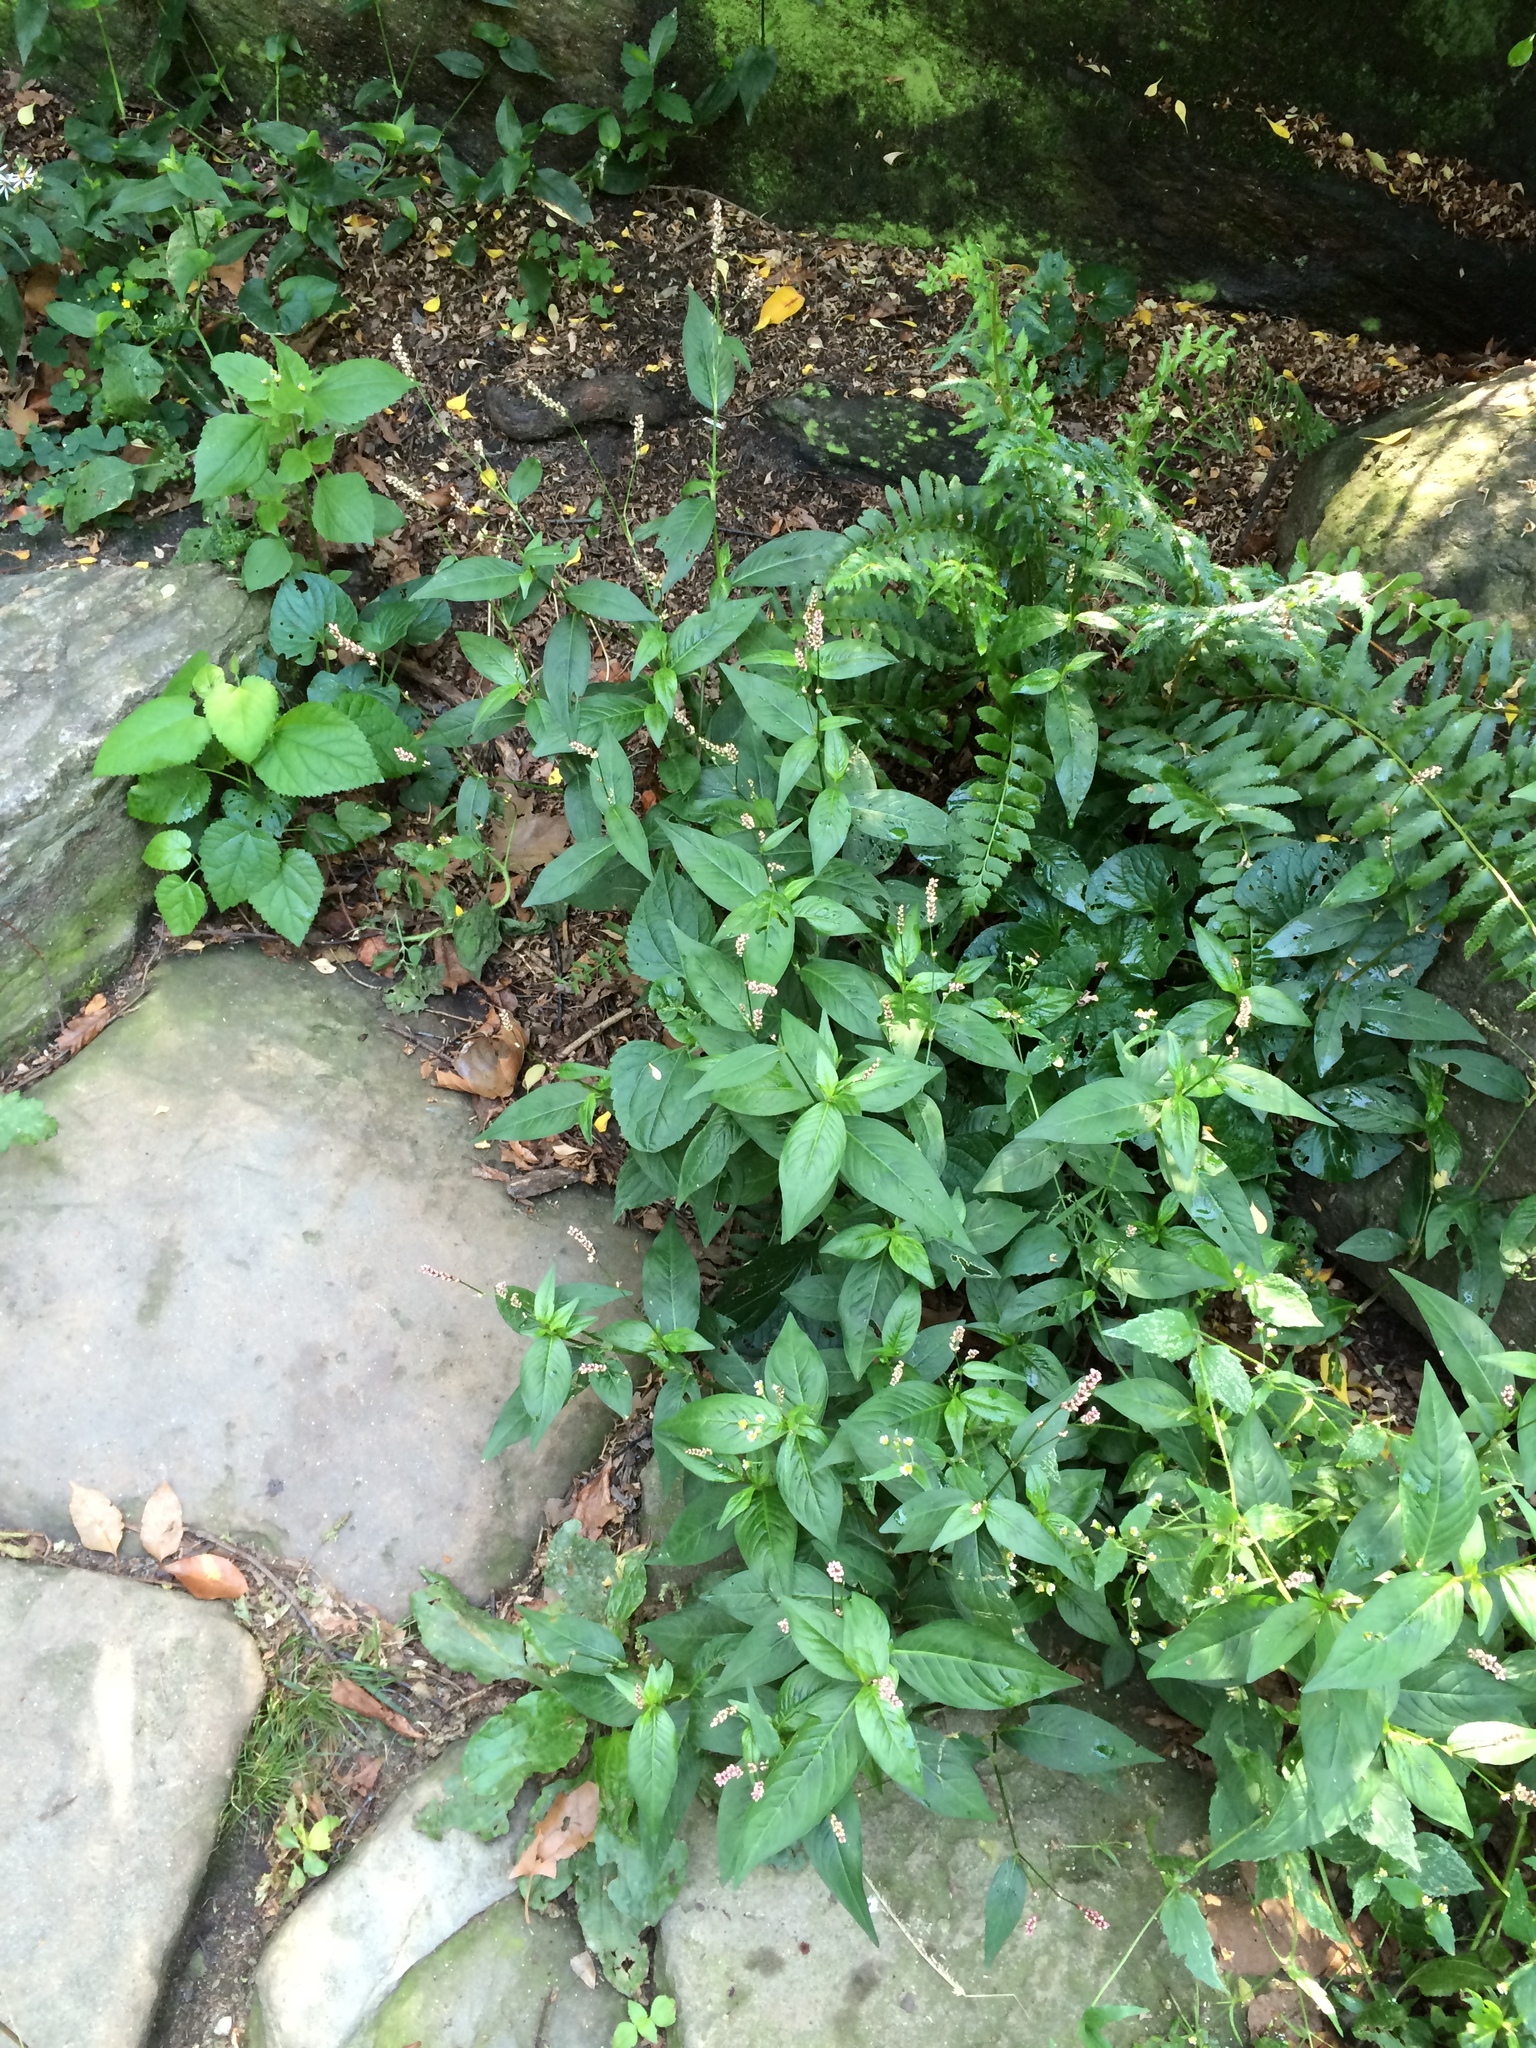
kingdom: Plantae
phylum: Tracheophyta
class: Magnoliopsida
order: Caryophyllales
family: Polygonaceae
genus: Persicaria
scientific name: Persicaria longiseta
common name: Bristly lady's-thumb
